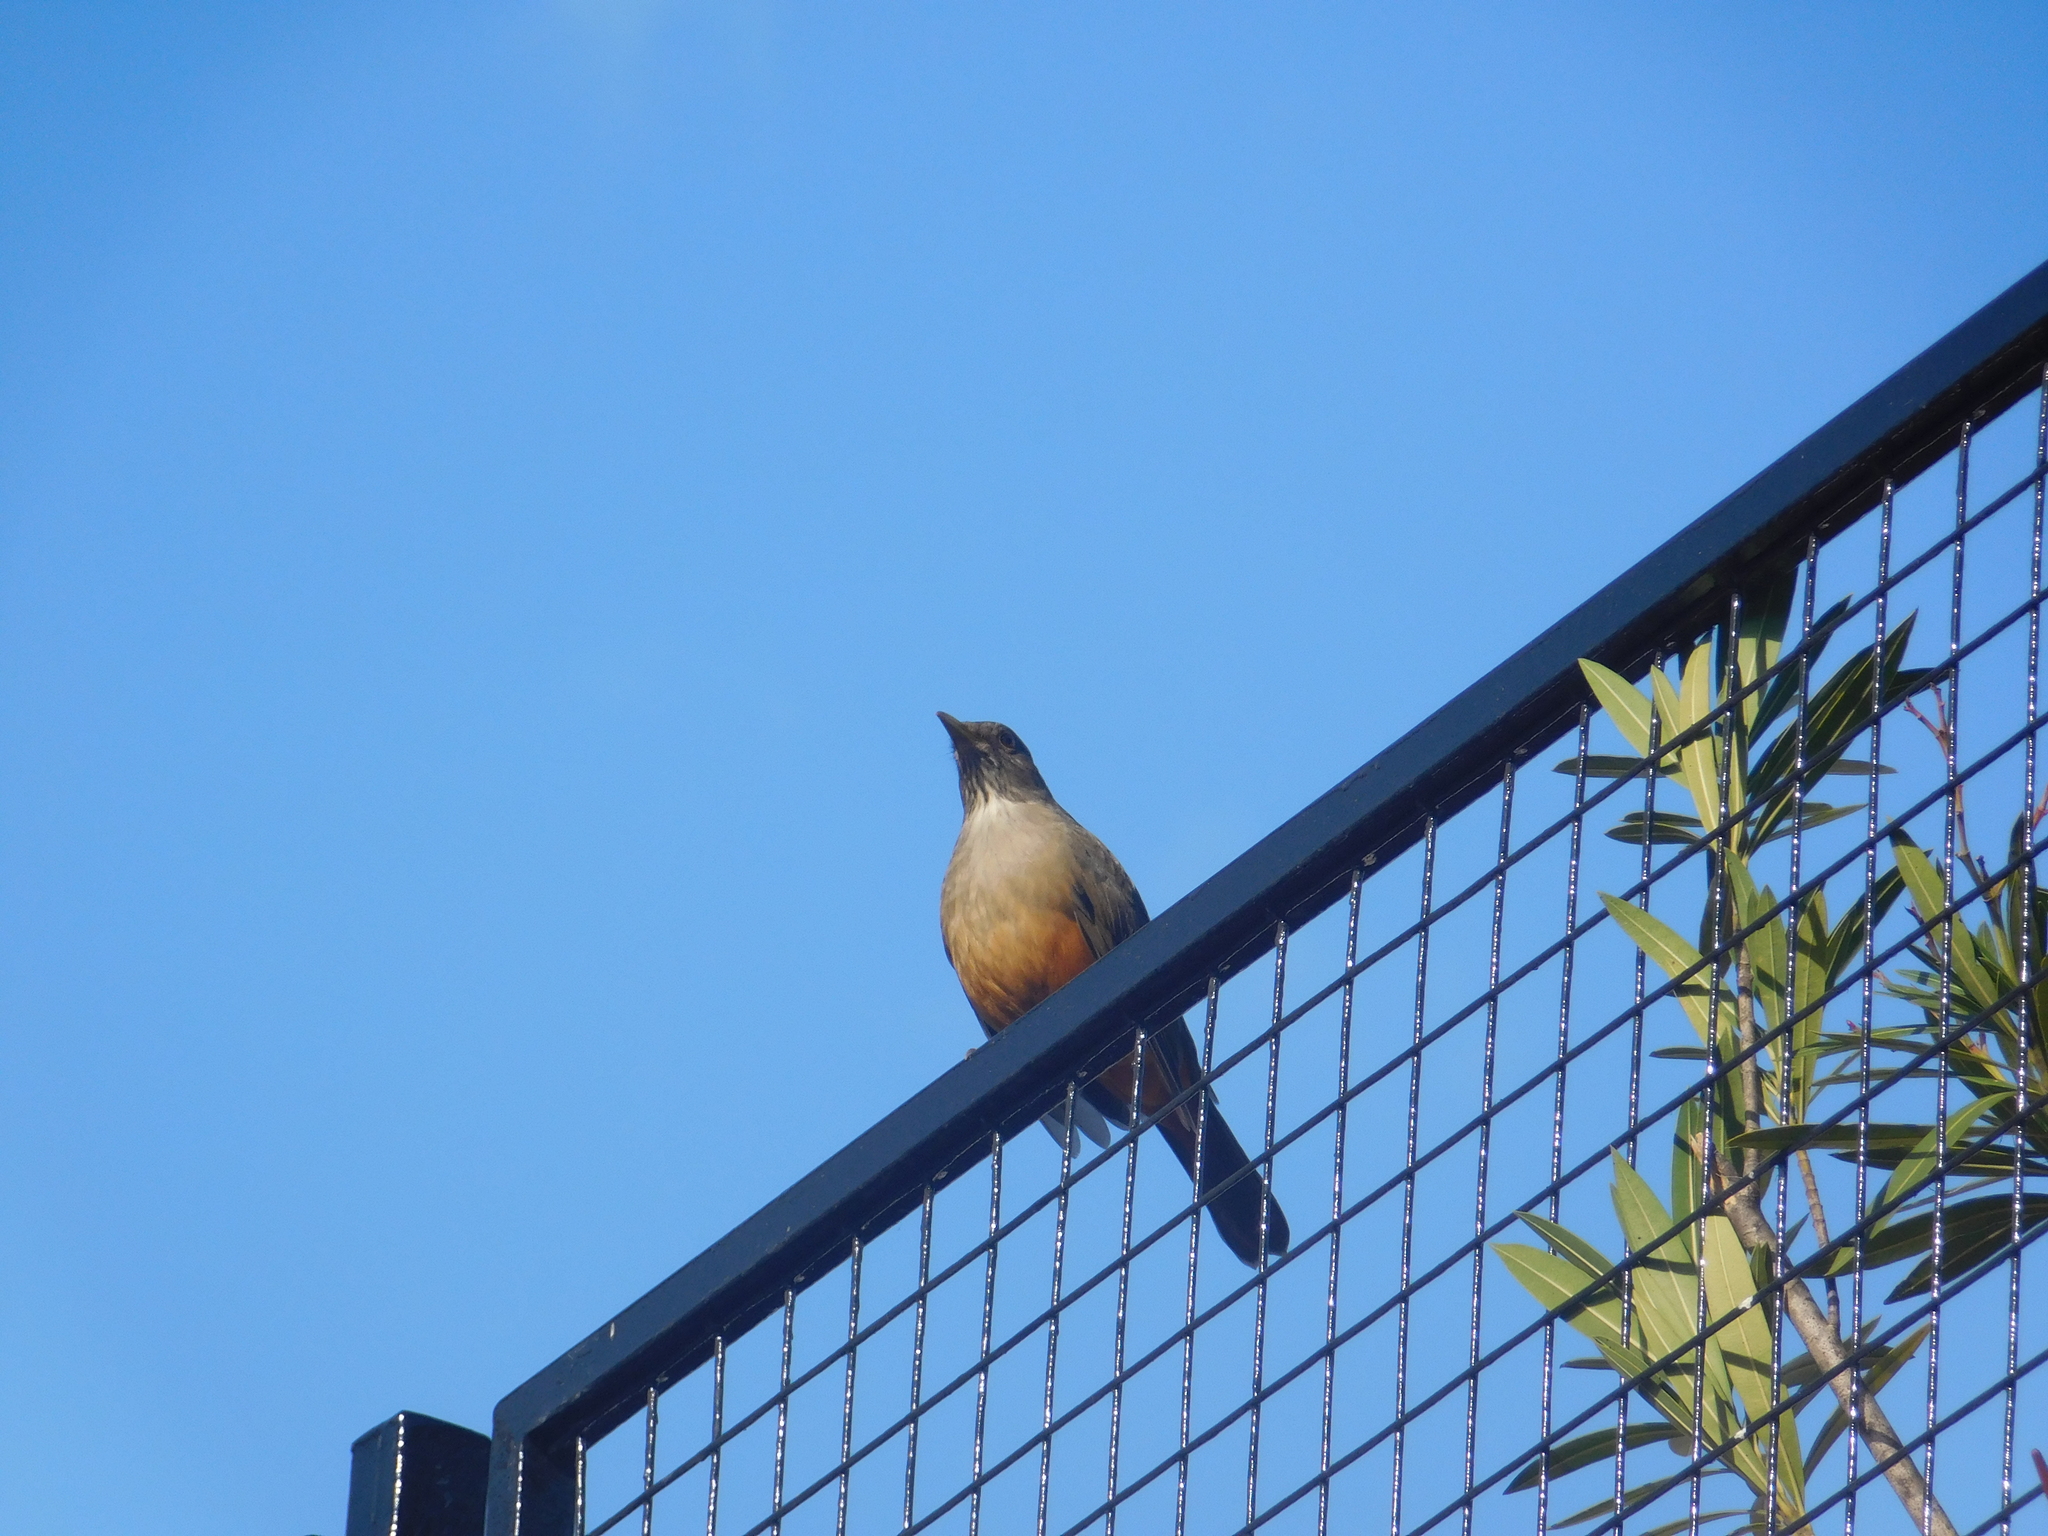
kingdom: Animalia
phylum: Chordata
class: Aves
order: Passeriformes
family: Turdidae
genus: Turdus
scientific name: Turdus rufiventris
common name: Rufous-bellied thrush
